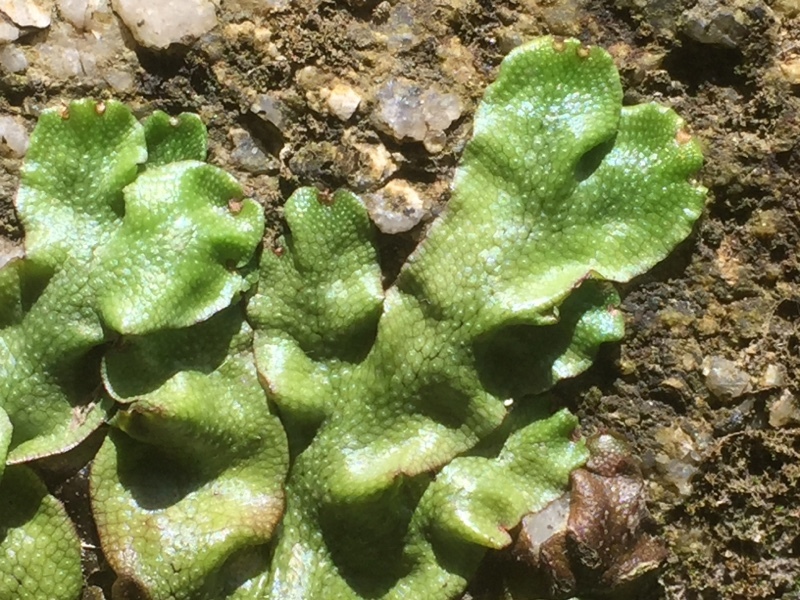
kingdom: Plantae
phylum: Marchantiophyta
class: Marchantiopsida
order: Marchantiales
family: Conocephalaceae
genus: Conocephalum
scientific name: Conocephalum conicum
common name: Great scented liverwort
